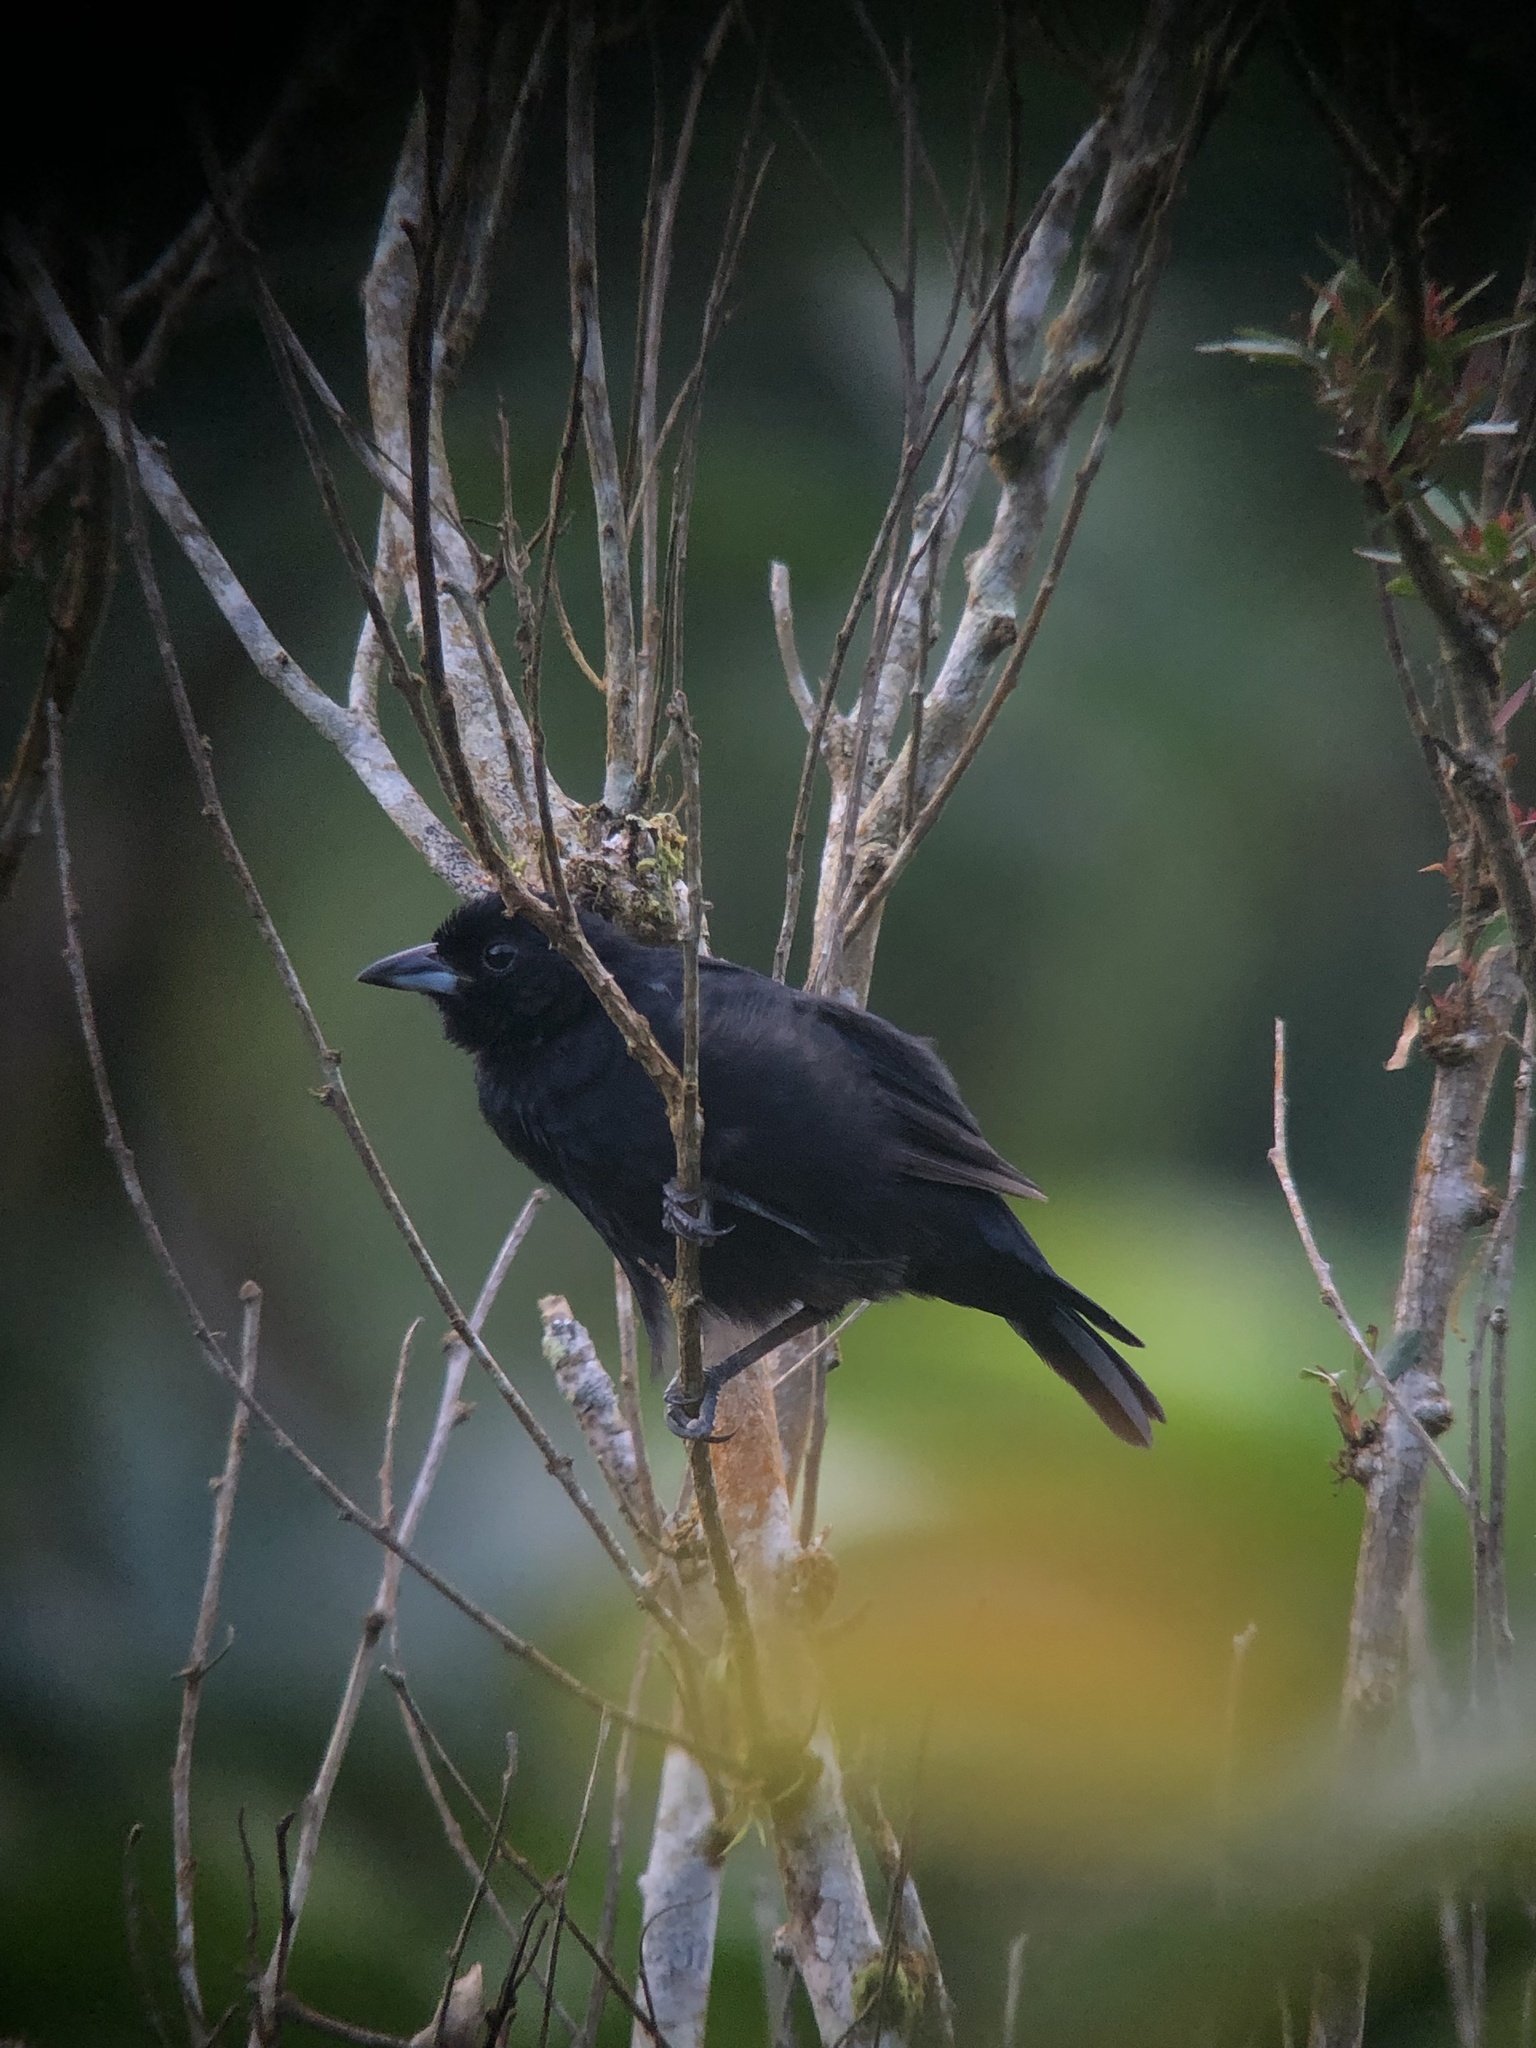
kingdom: Animalia
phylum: Chordata
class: Aves
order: Passeriformes
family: Thraupidae
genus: Tachyphonus
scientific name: Tachyphonus rufus
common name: White-lined tanager
